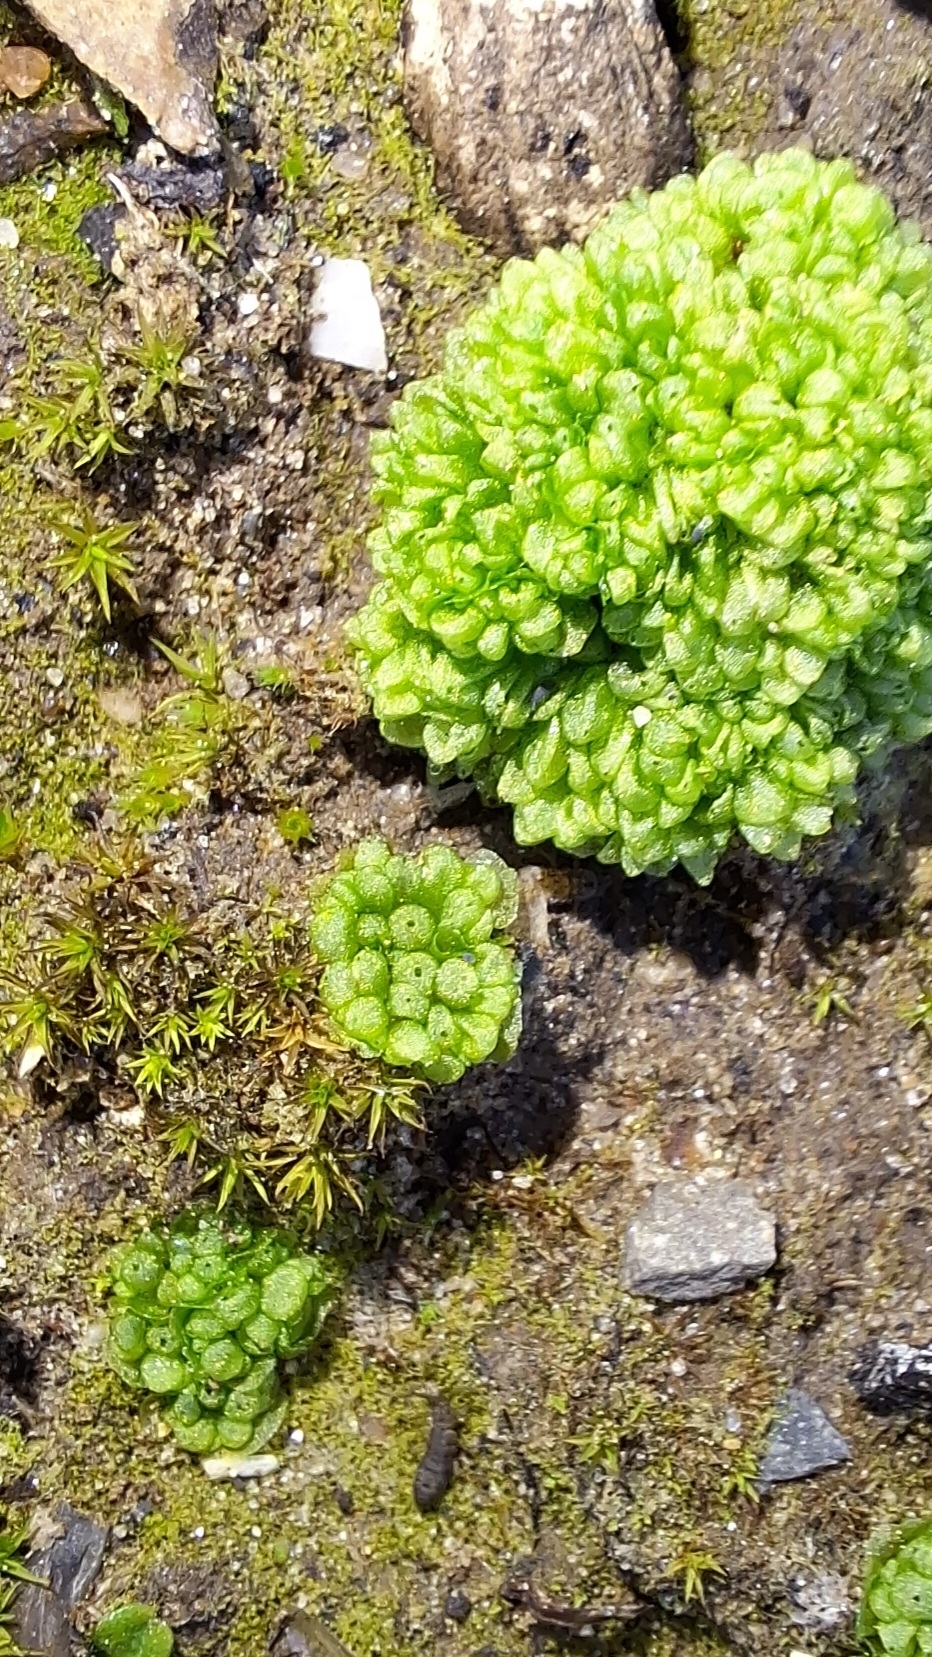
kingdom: Plantae
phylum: Marchantiophyta
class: Marchantiopsida
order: Sphaerocarpales
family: Sphaerocarpaceae
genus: Sphaerocarpos
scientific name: Sphaerocarpos texanus
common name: Texas balloonwort
